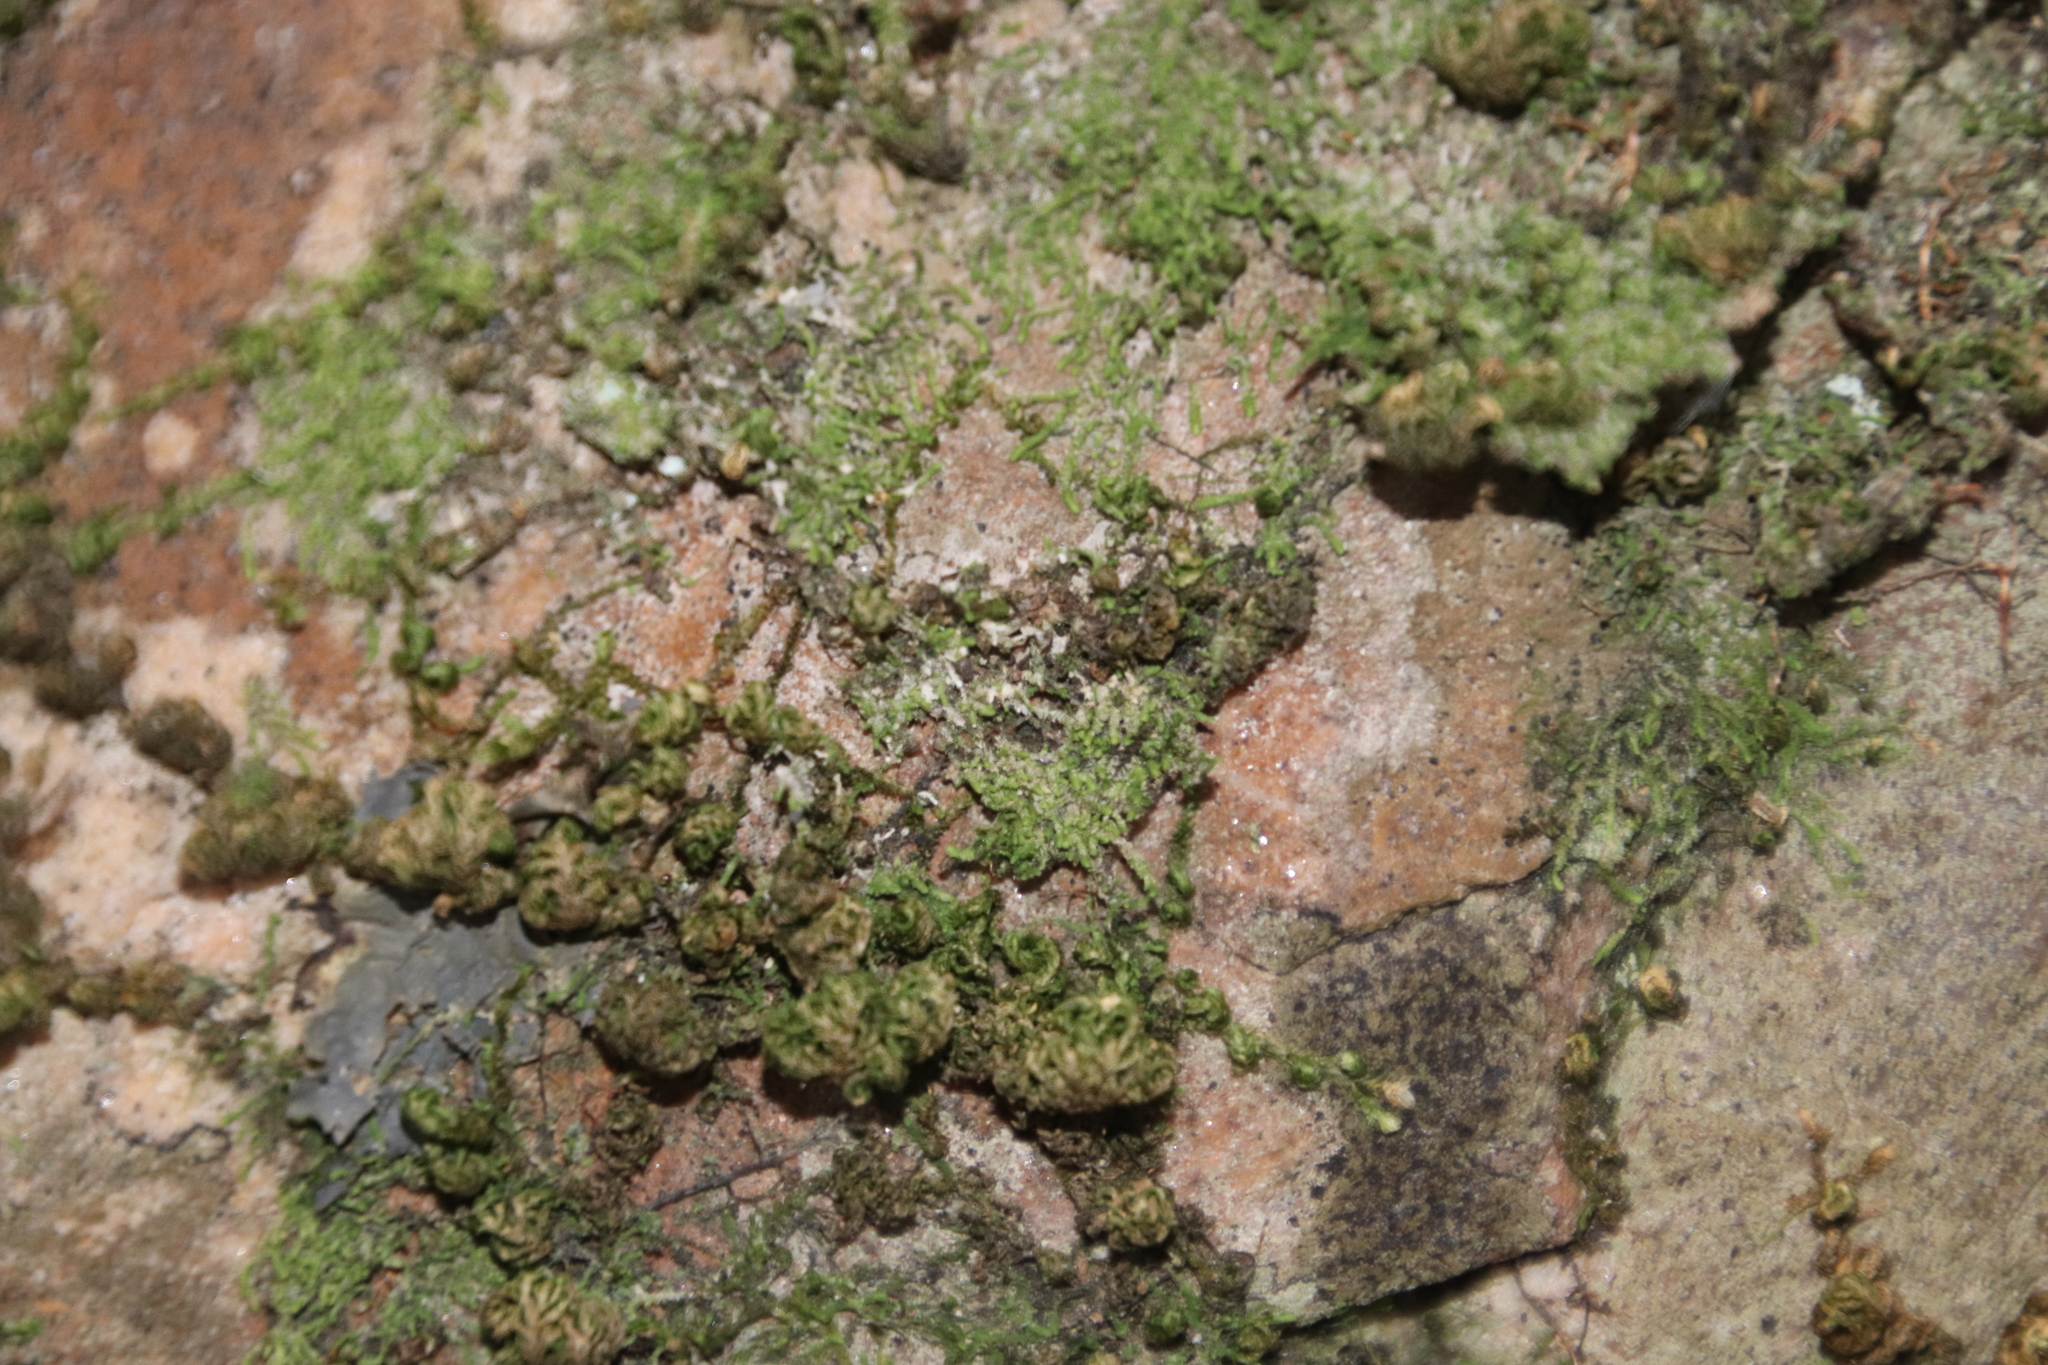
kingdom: Plantae
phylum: Bryophyta
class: Bryopsida
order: Hypnales
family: Neckeraceae
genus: Leptodon
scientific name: Leptodon smithii
